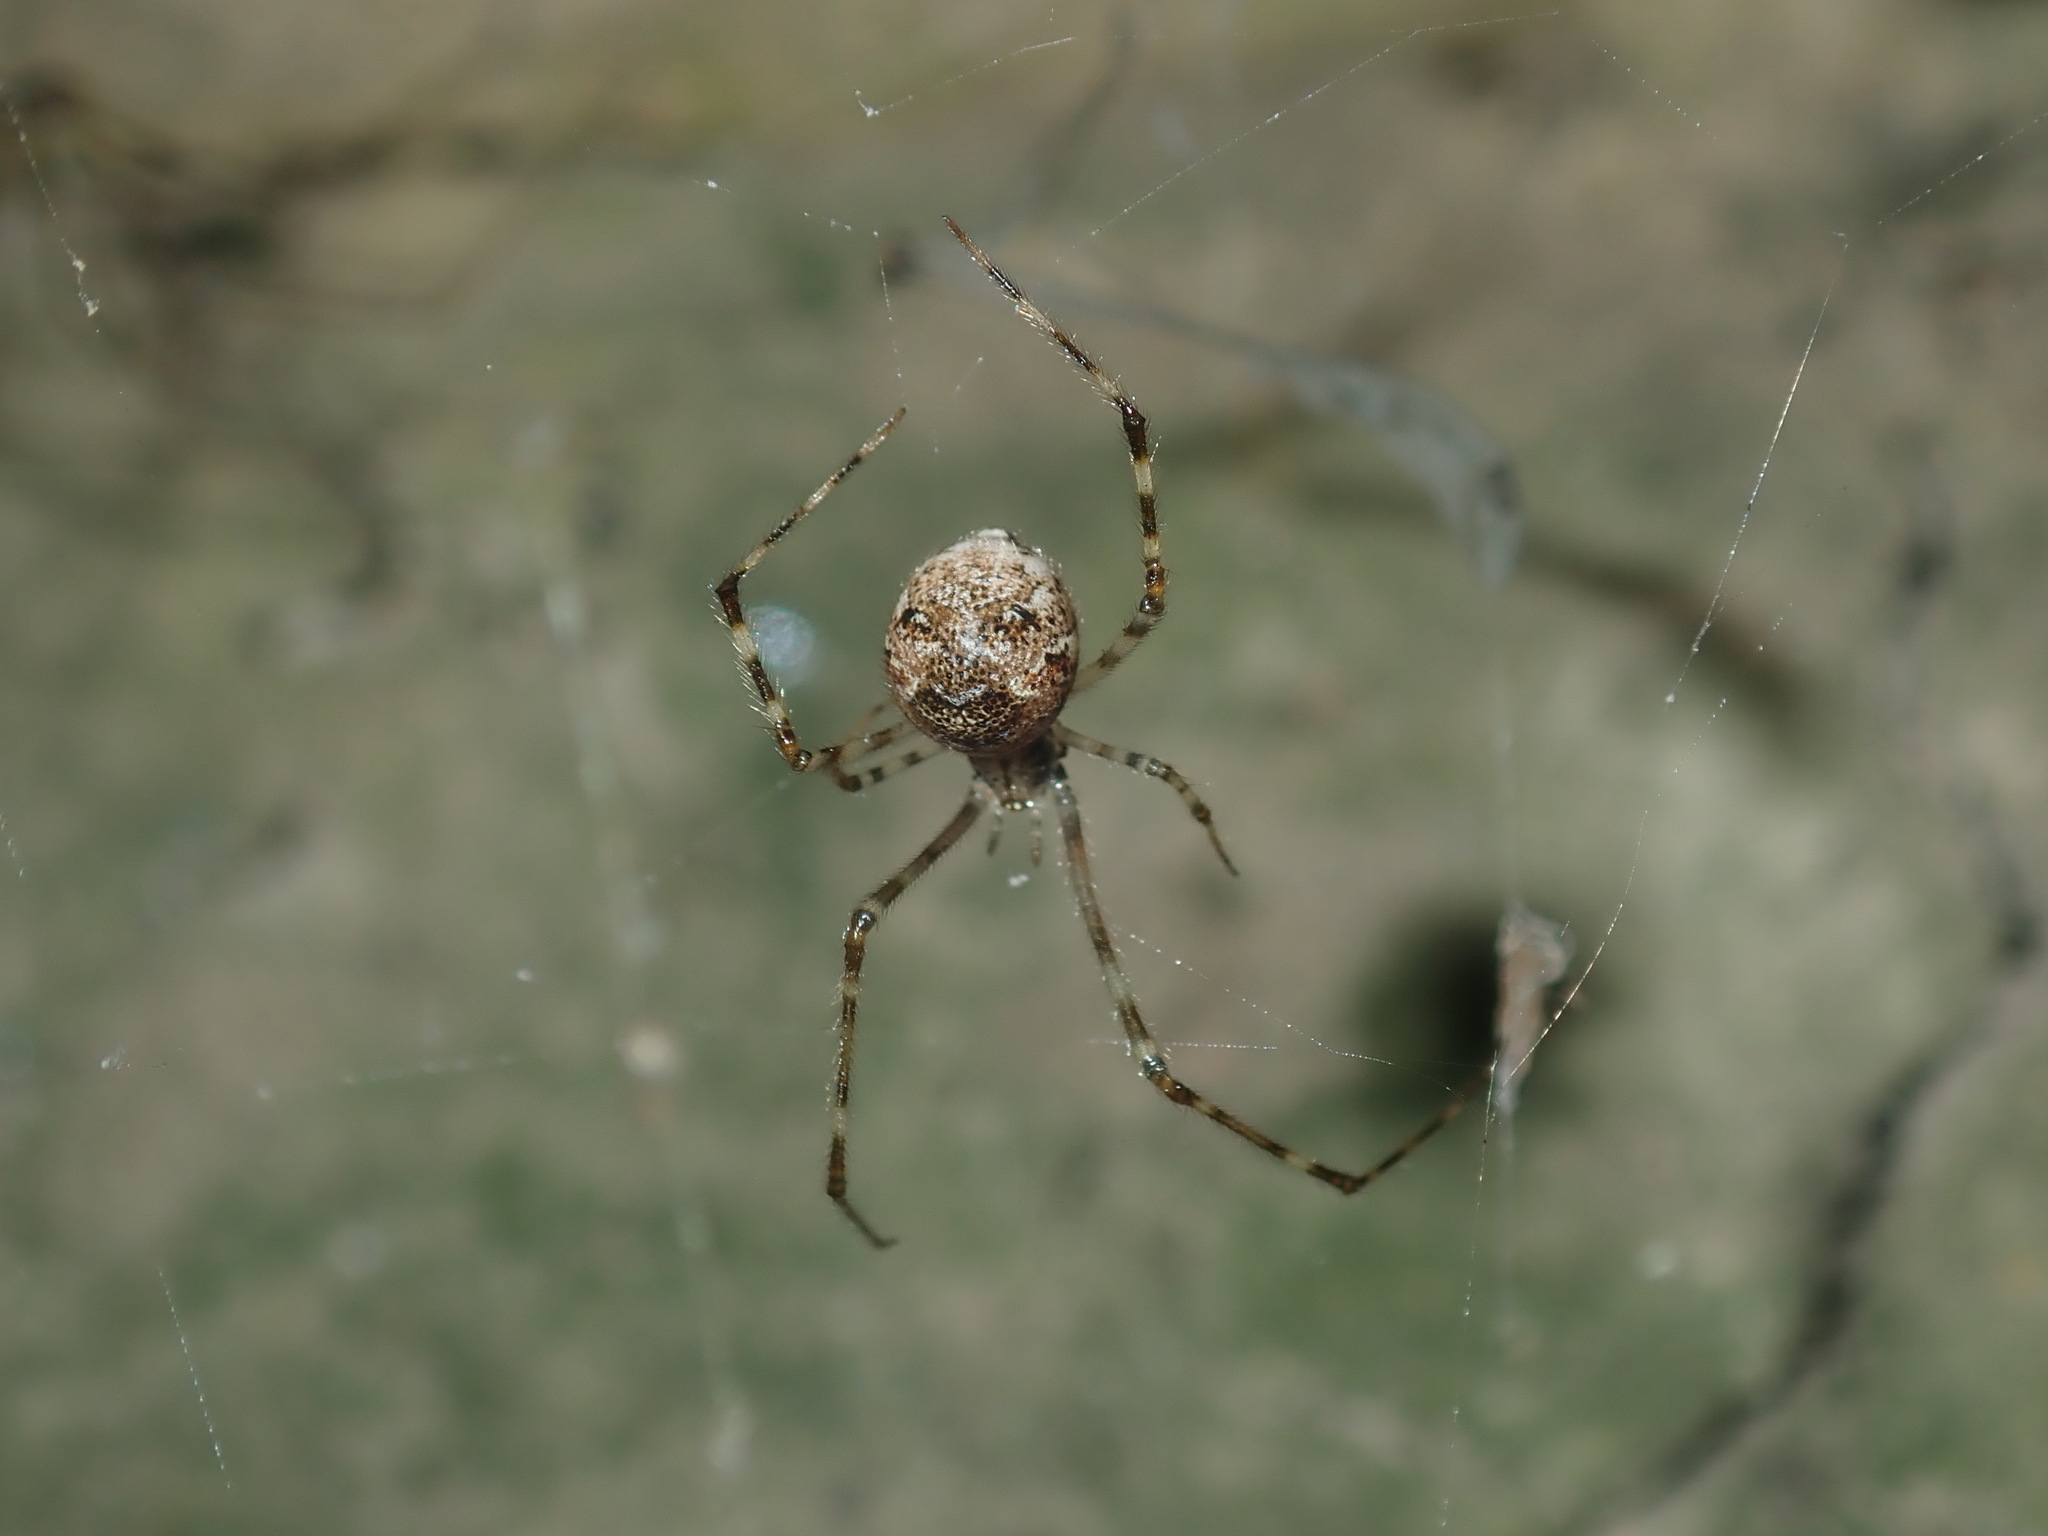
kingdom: Animalia
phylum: Arthropoda
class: Arachnida
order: Araneae
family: Theridiidae
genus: Cryptachaea
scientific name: Cryptachaea gigantipes
